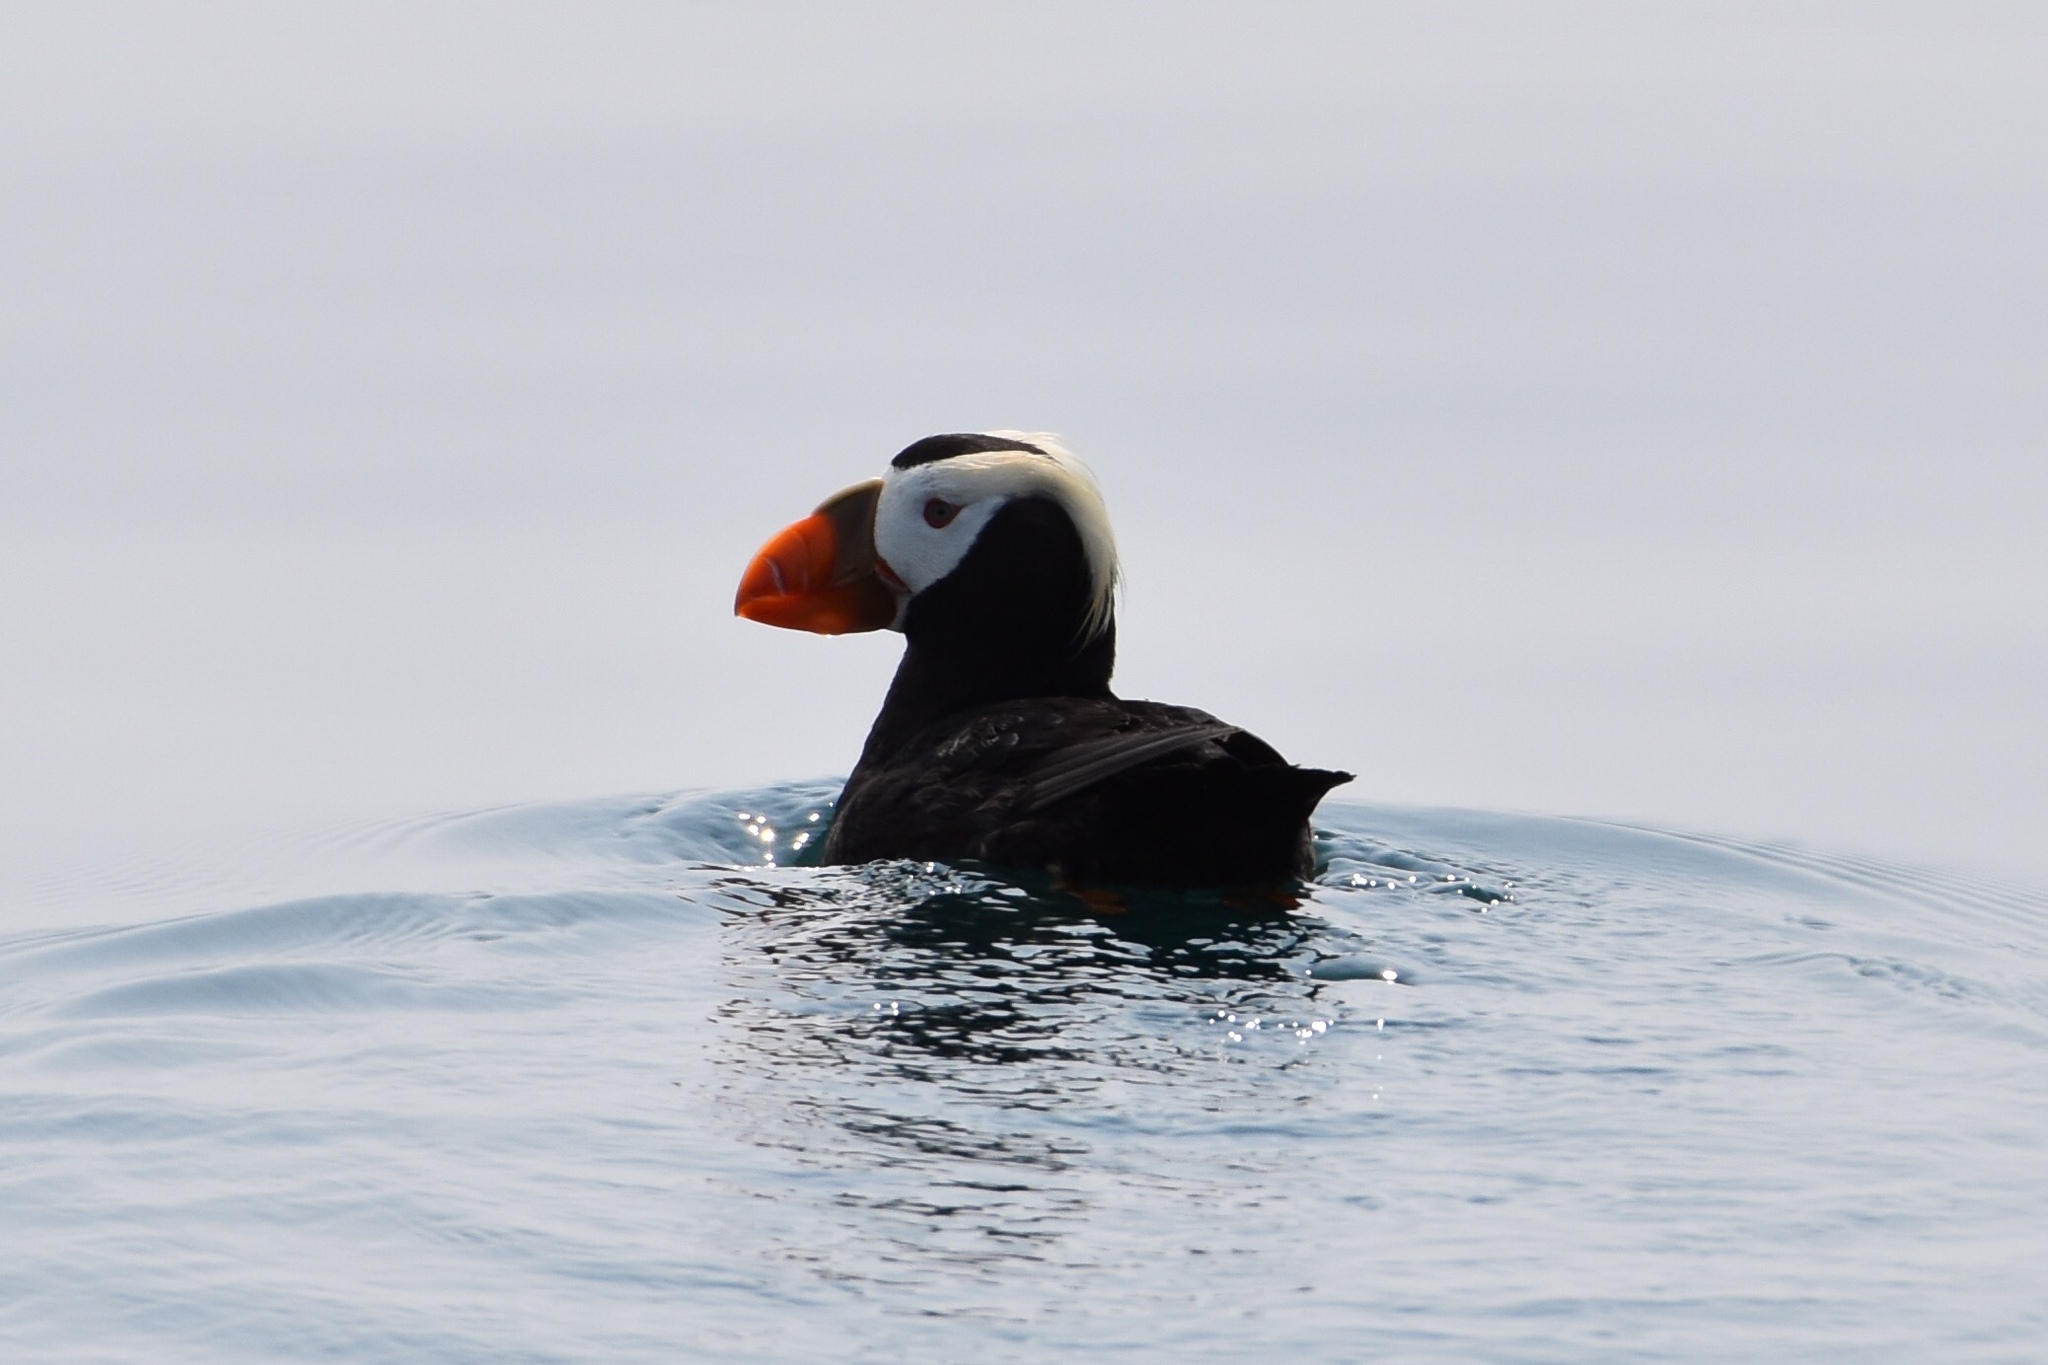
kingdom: Animalia
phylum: Chordata
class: Aves
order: Charadriiformes
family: Alcidae
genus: Fratercula
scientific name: Fratercula cirrhata
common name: Tufted puffin
